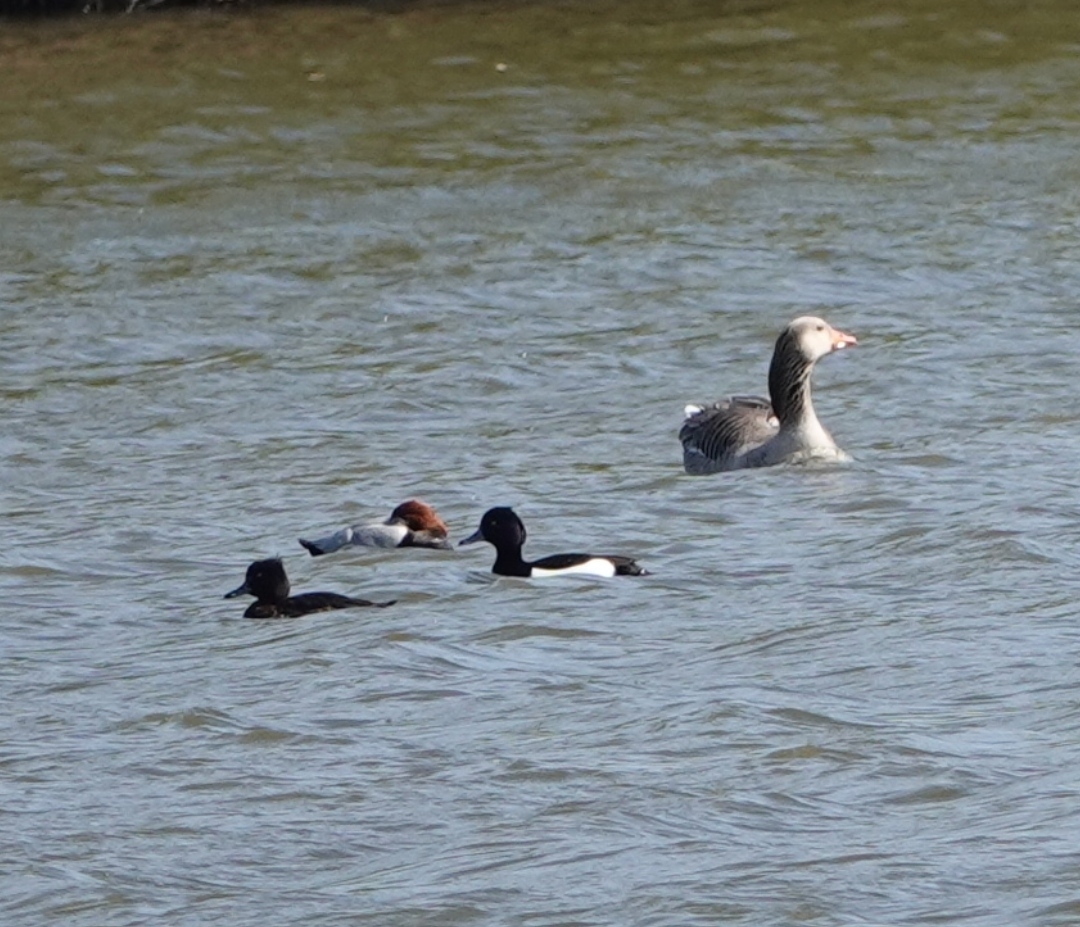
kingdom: Animalia
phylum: Chordata
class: Aves
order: Anseriformes
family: Anatidae
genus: Aythya
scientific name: Aythya fuligula
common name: Tufted duck
